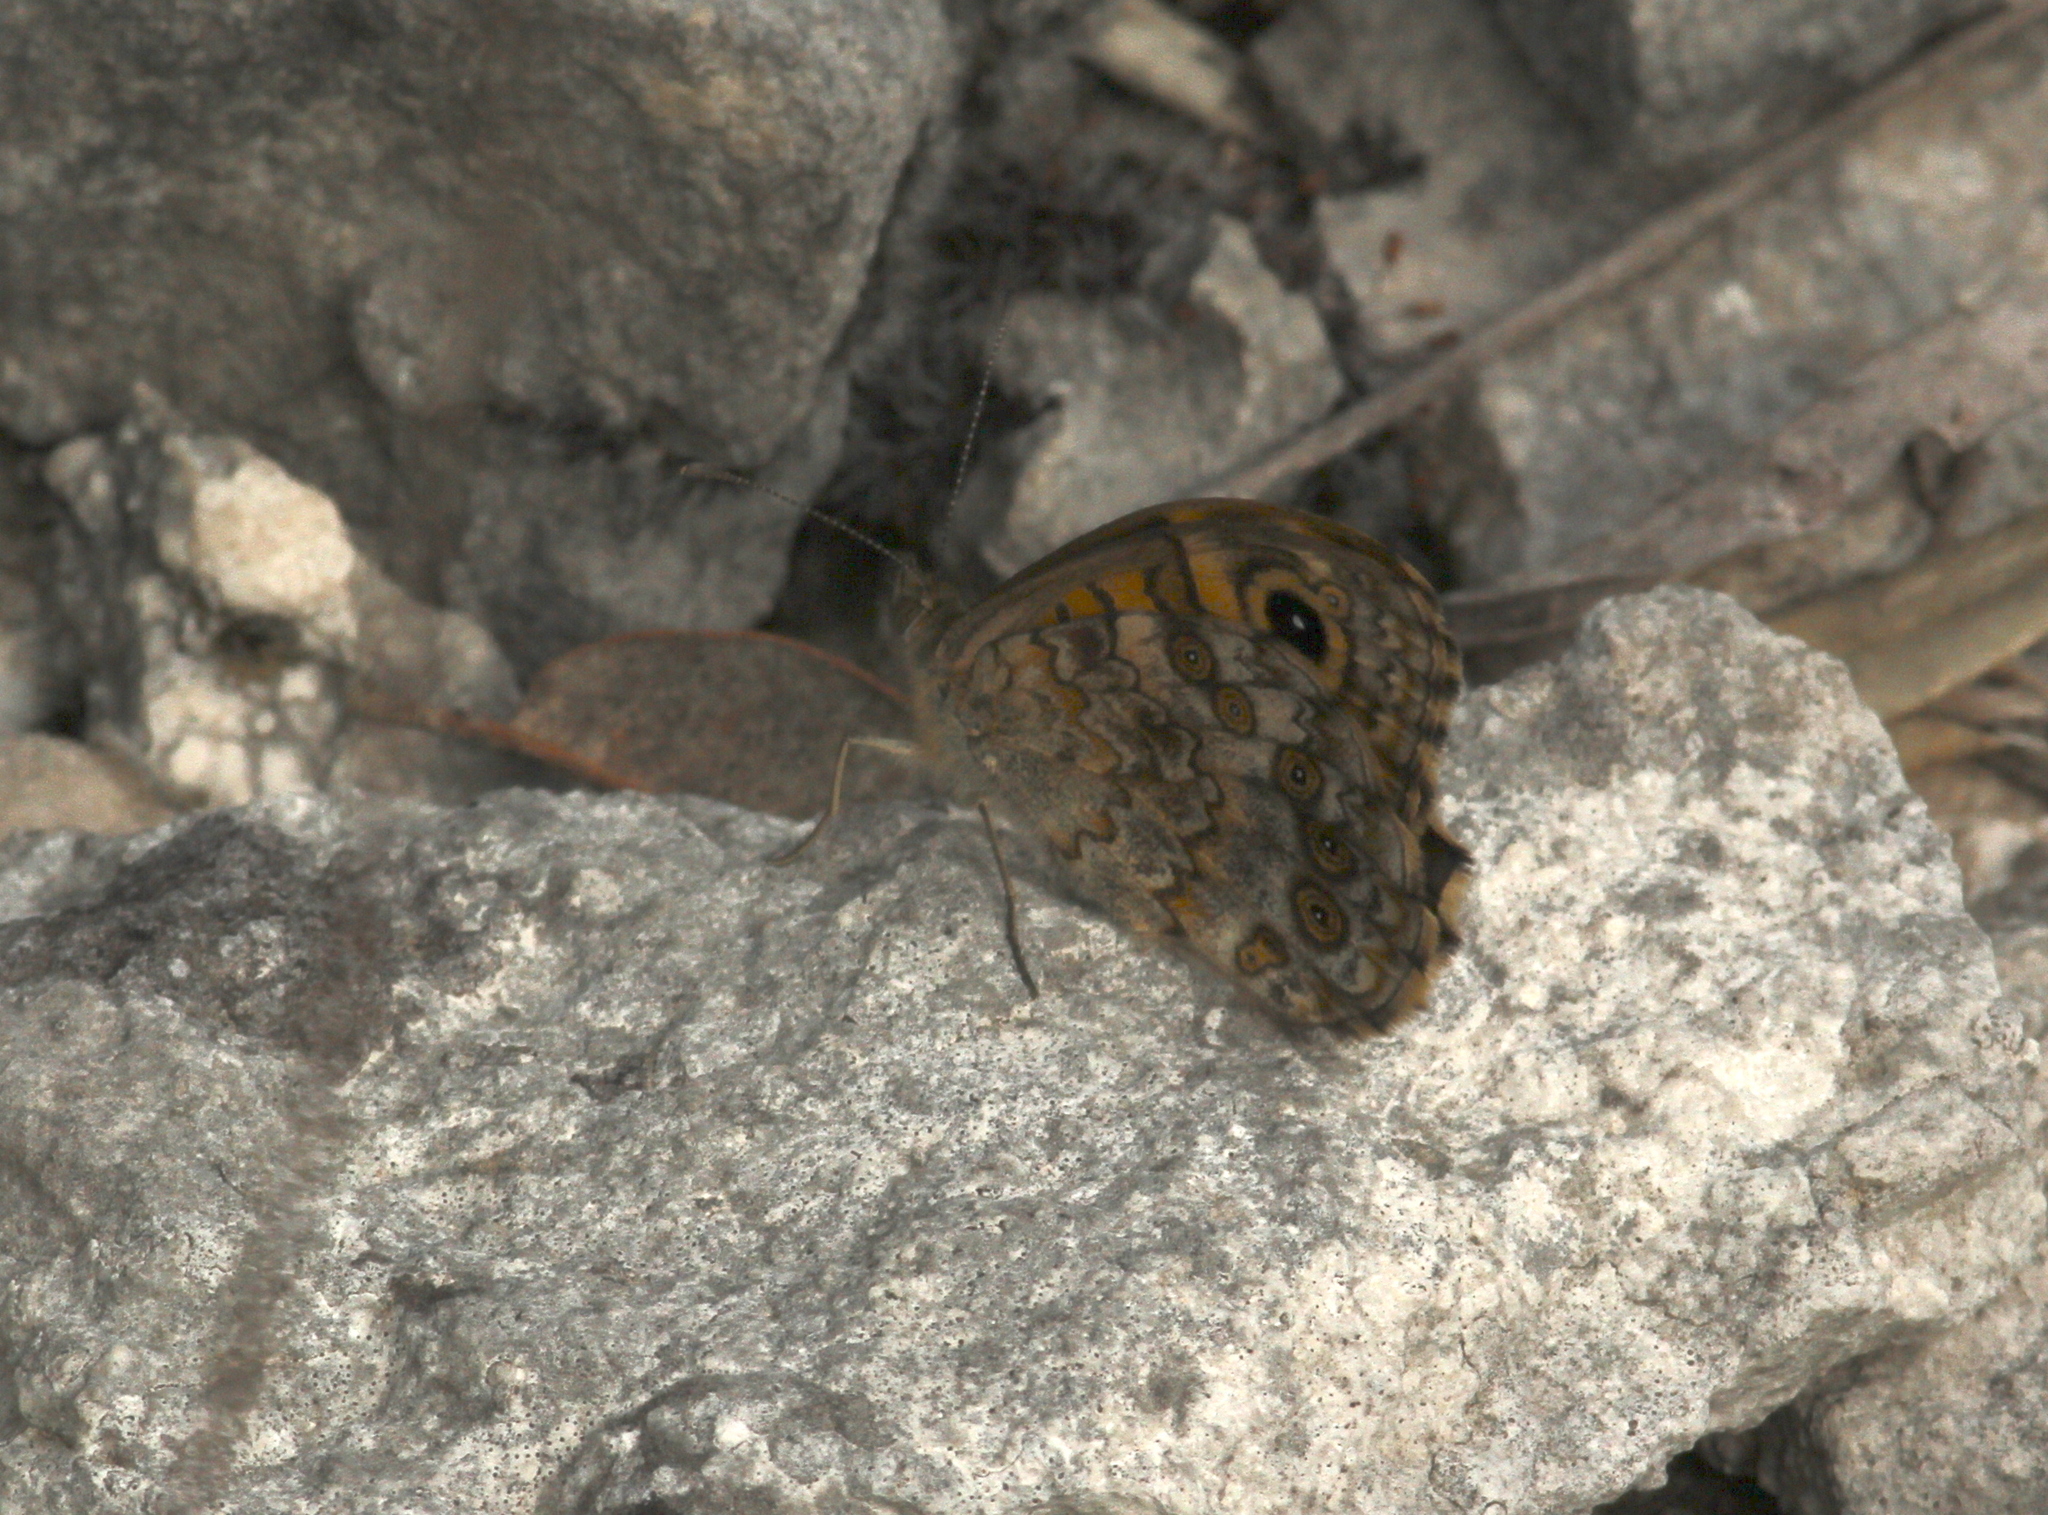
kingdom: Animalia
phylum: Arthropoda
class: Insecta
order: Lepidoptera
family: Nymphalidae
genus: Pararge
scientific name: Pararge Lasiommata megera
